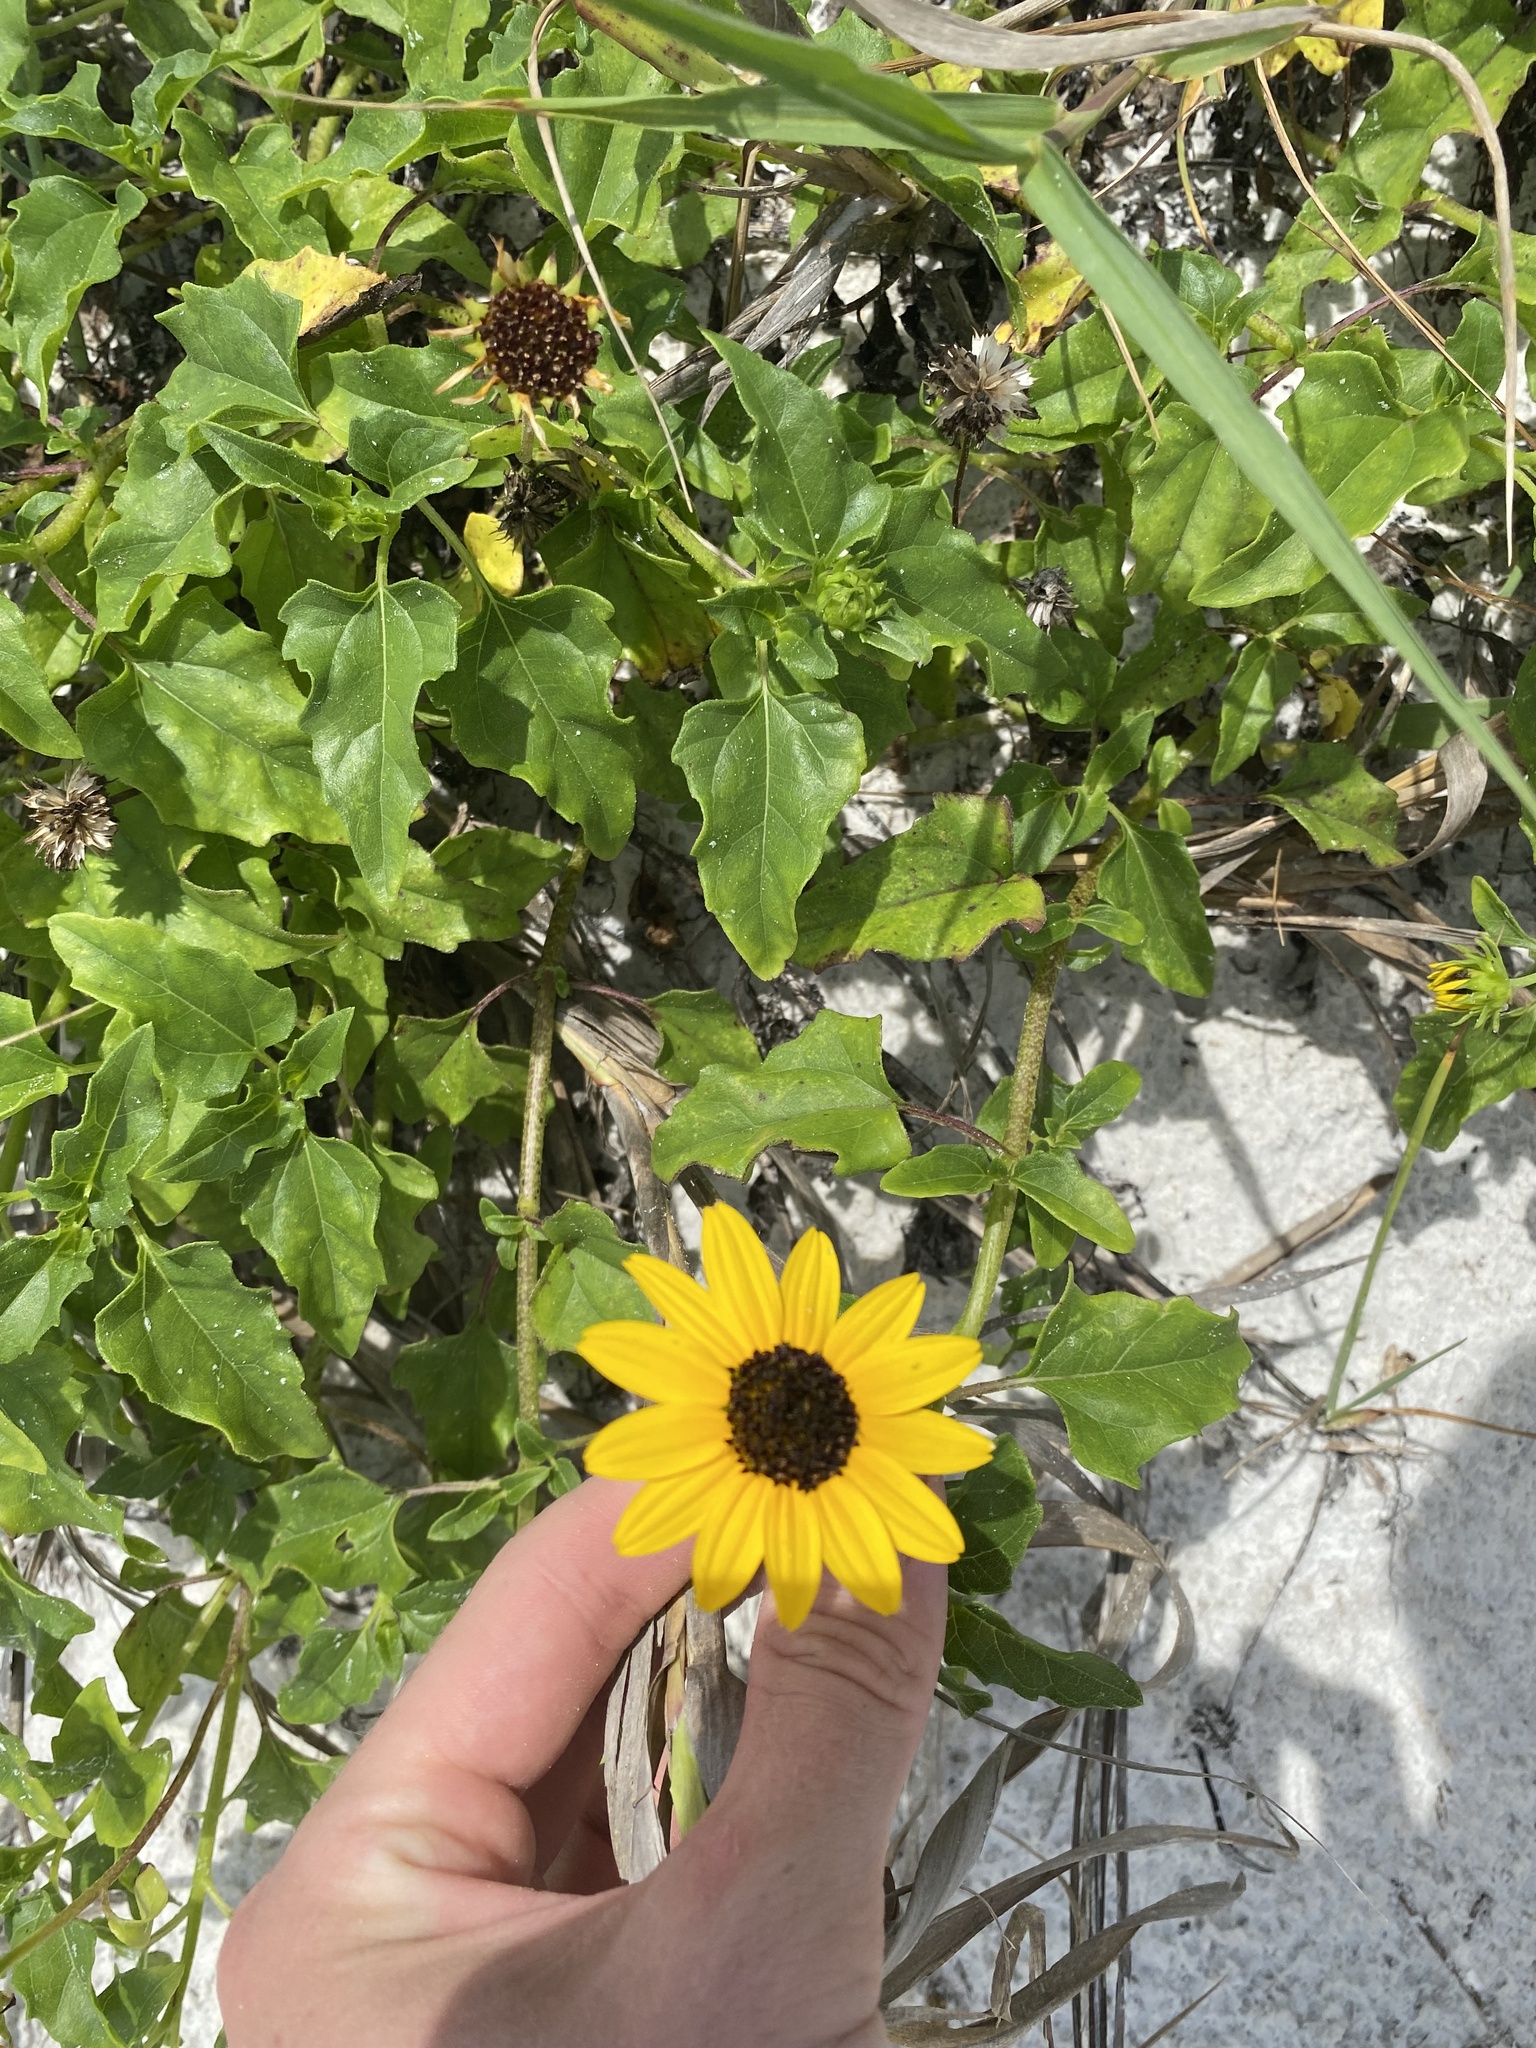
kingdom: Plantae
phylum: Tracheophyta
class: Magnoliopsida
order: Asterales
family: Asteraceae
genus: Helianthus
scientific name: Helianthus debilis
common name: Weak sunflower
